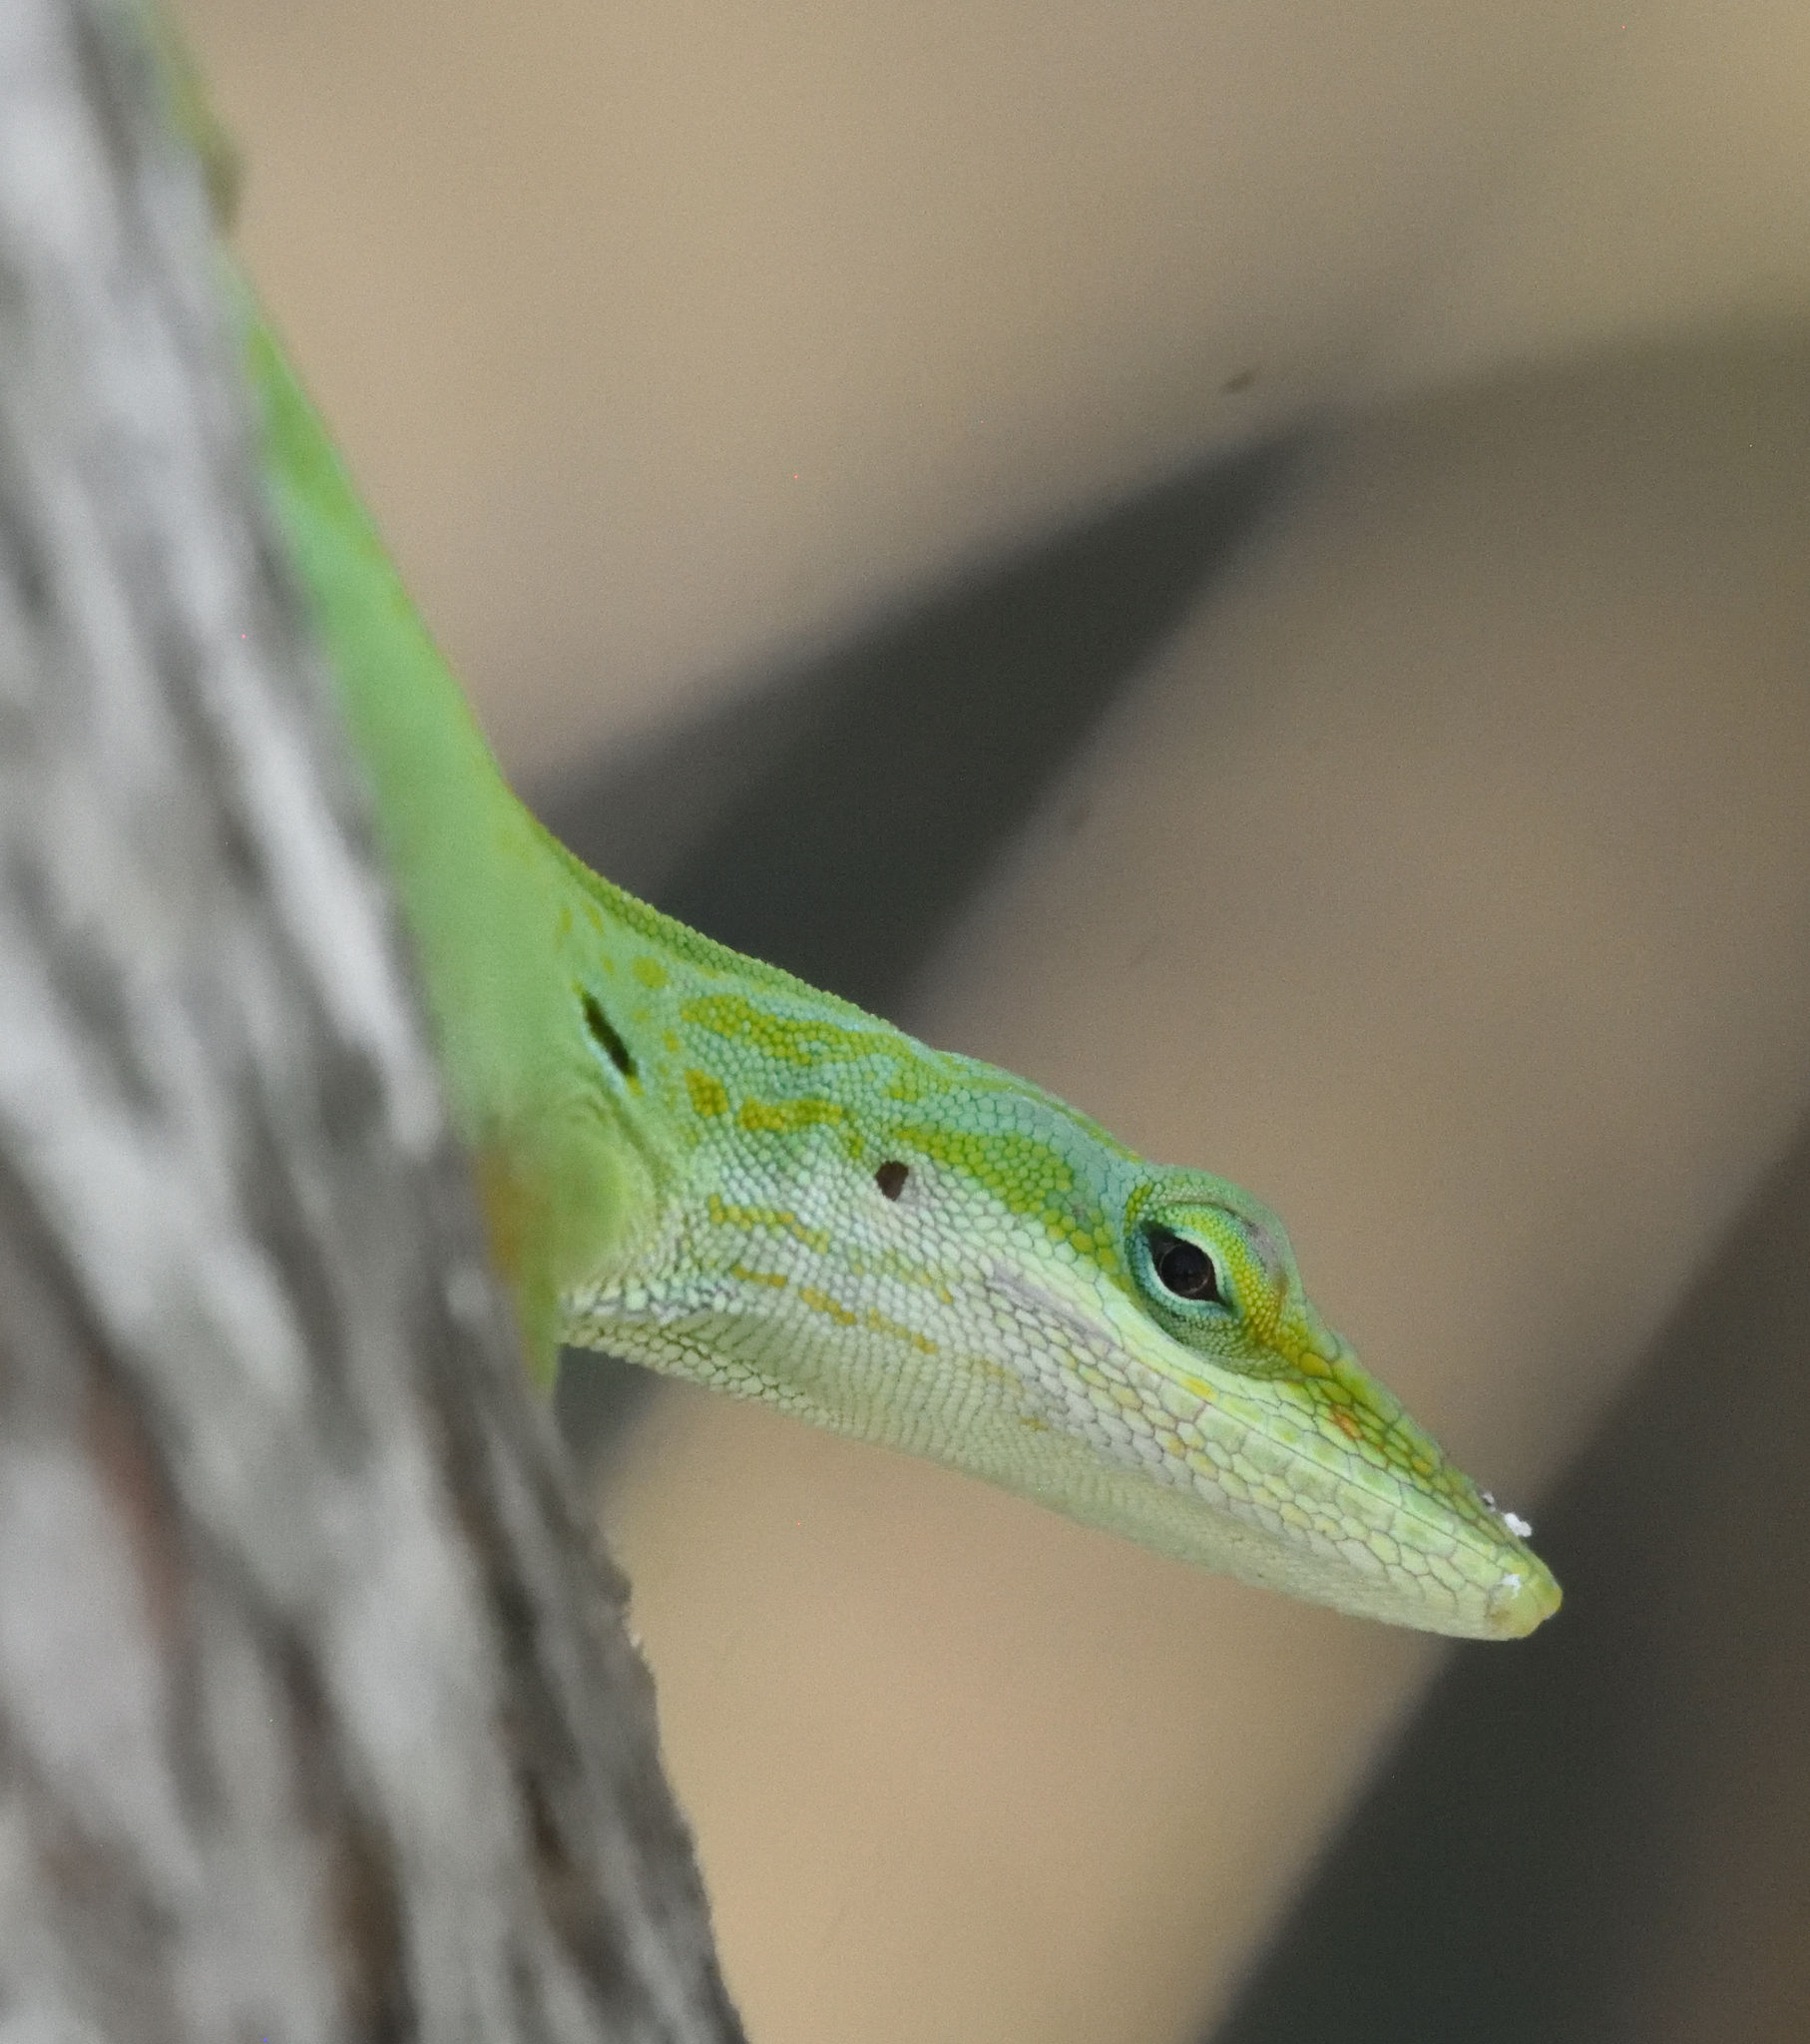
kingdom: Animalia
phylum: Chordata
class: Squamata
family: Dactyloidae
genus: Anolis
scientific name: Anolis carolinensis
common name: Green anole
